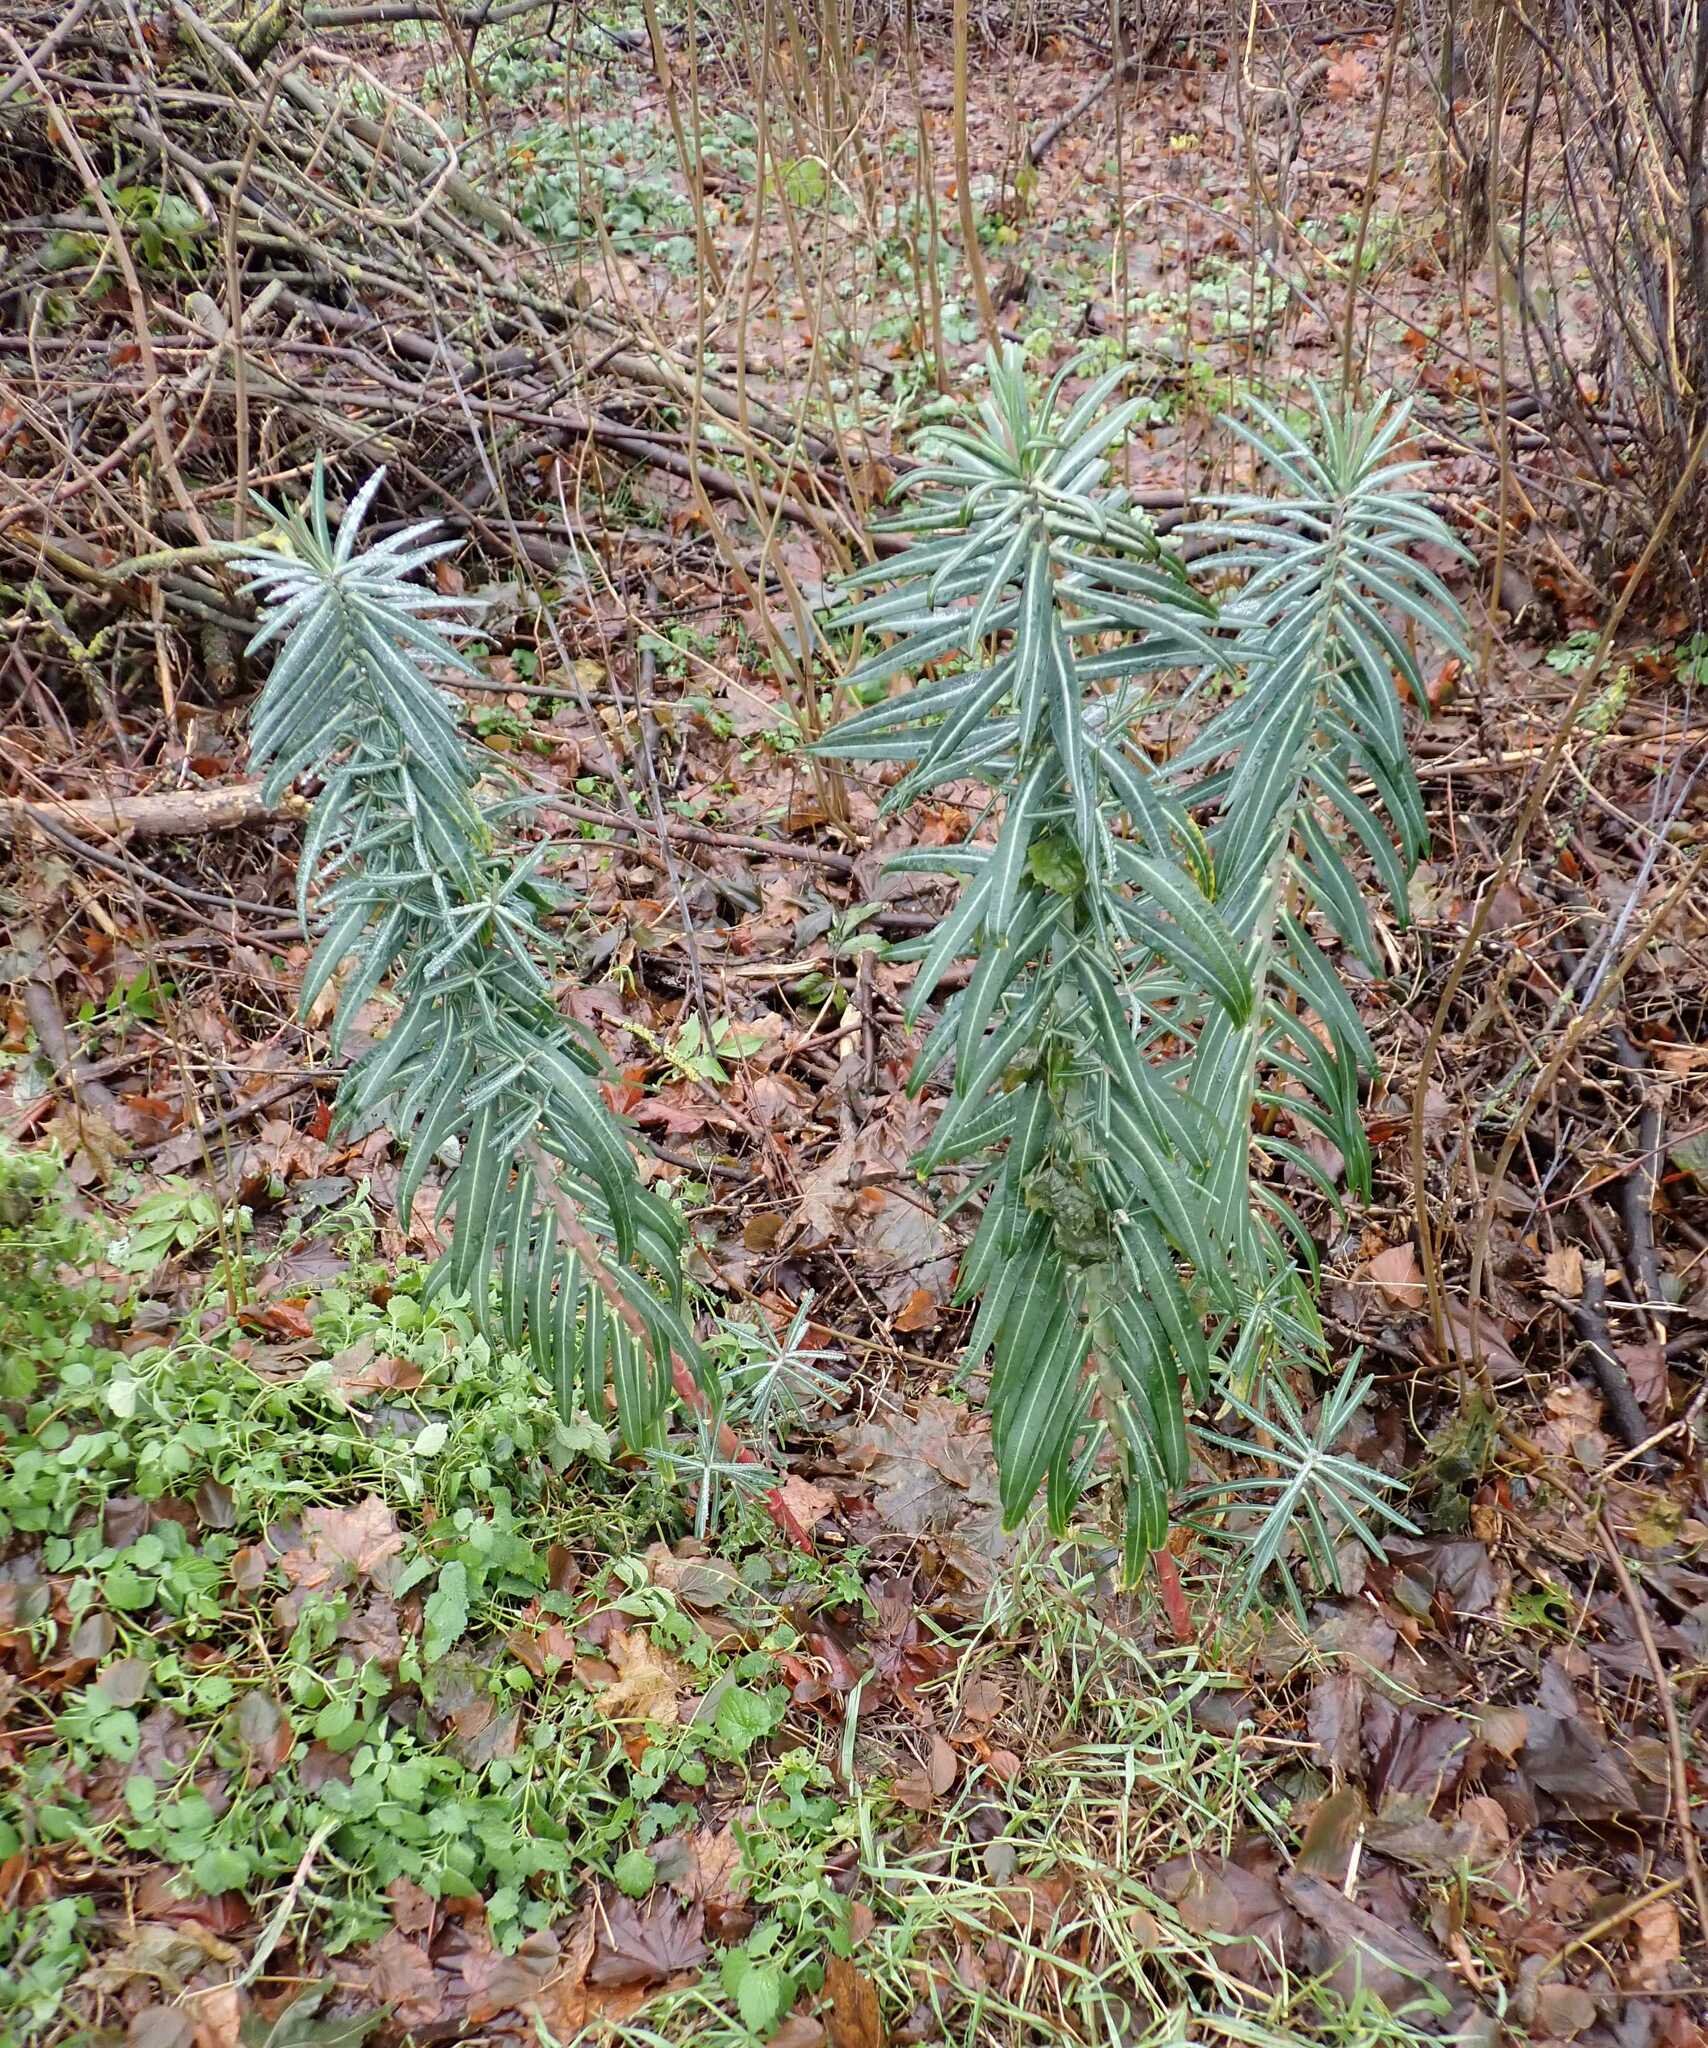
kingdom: Plantae
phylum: Tracheophyta
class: Magnoliopsida
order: Malpighiales
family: Euphorbiaceae
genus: Euphorbia
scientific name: Euphorbia lathyris
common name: Caper spurge
